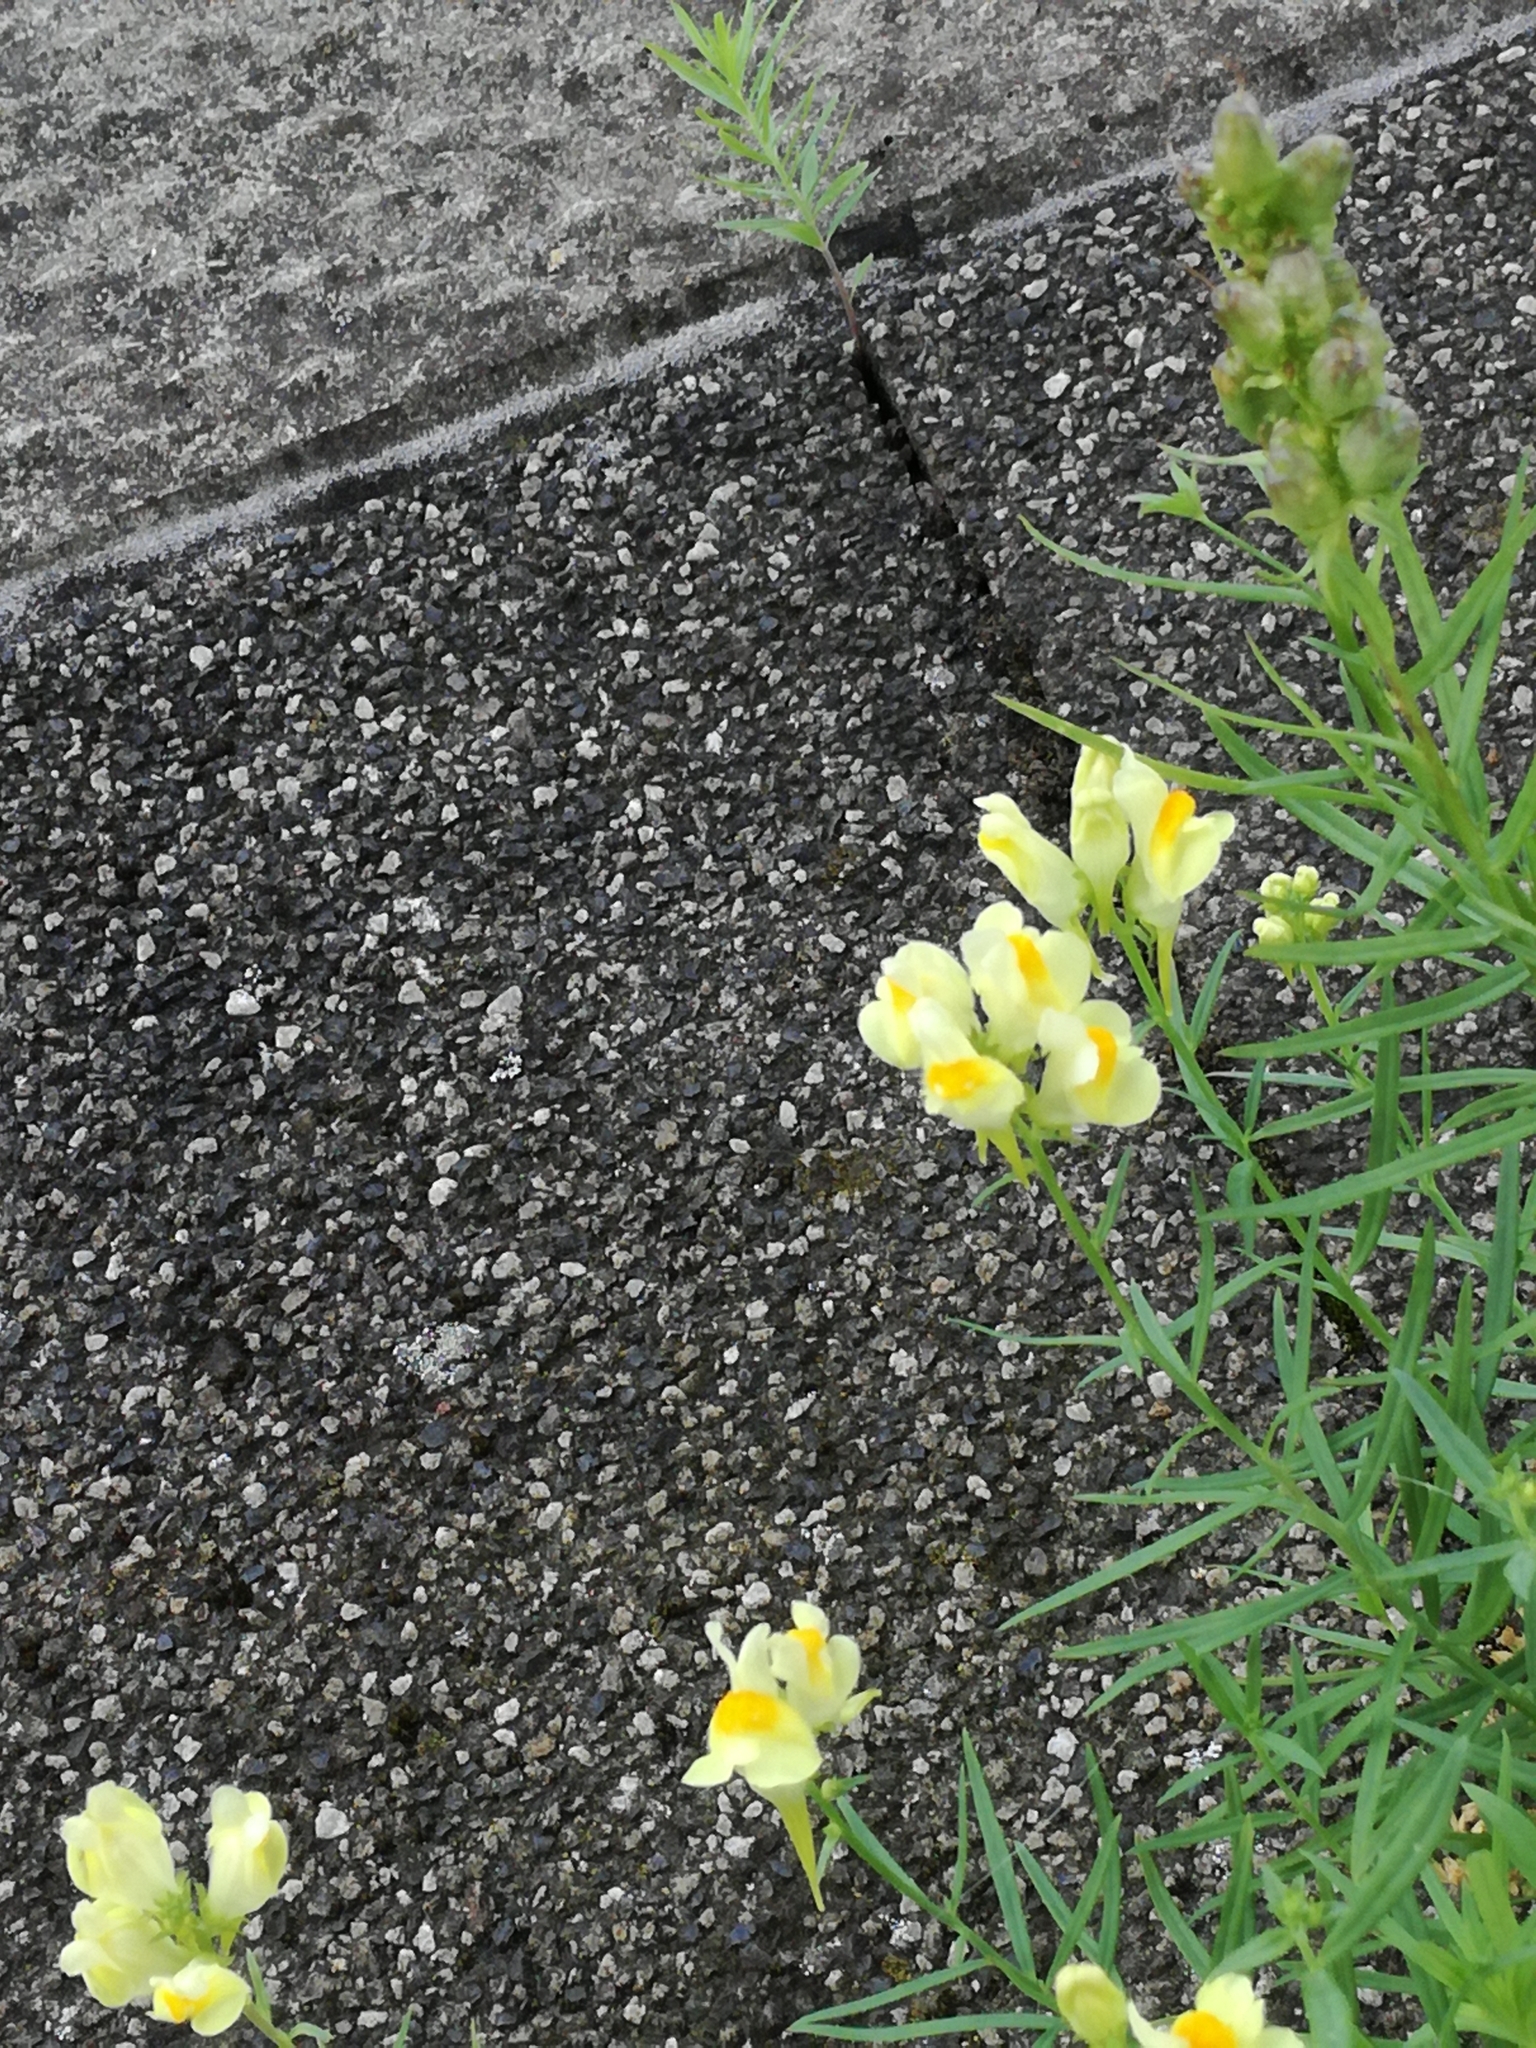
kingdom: Plantae
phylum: Tracheophyta
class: Magnoliopsida
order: Lamiales
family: Plantaginaceae
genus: Linaria
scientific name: Linaria vulgaris
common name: Butter and eggs
